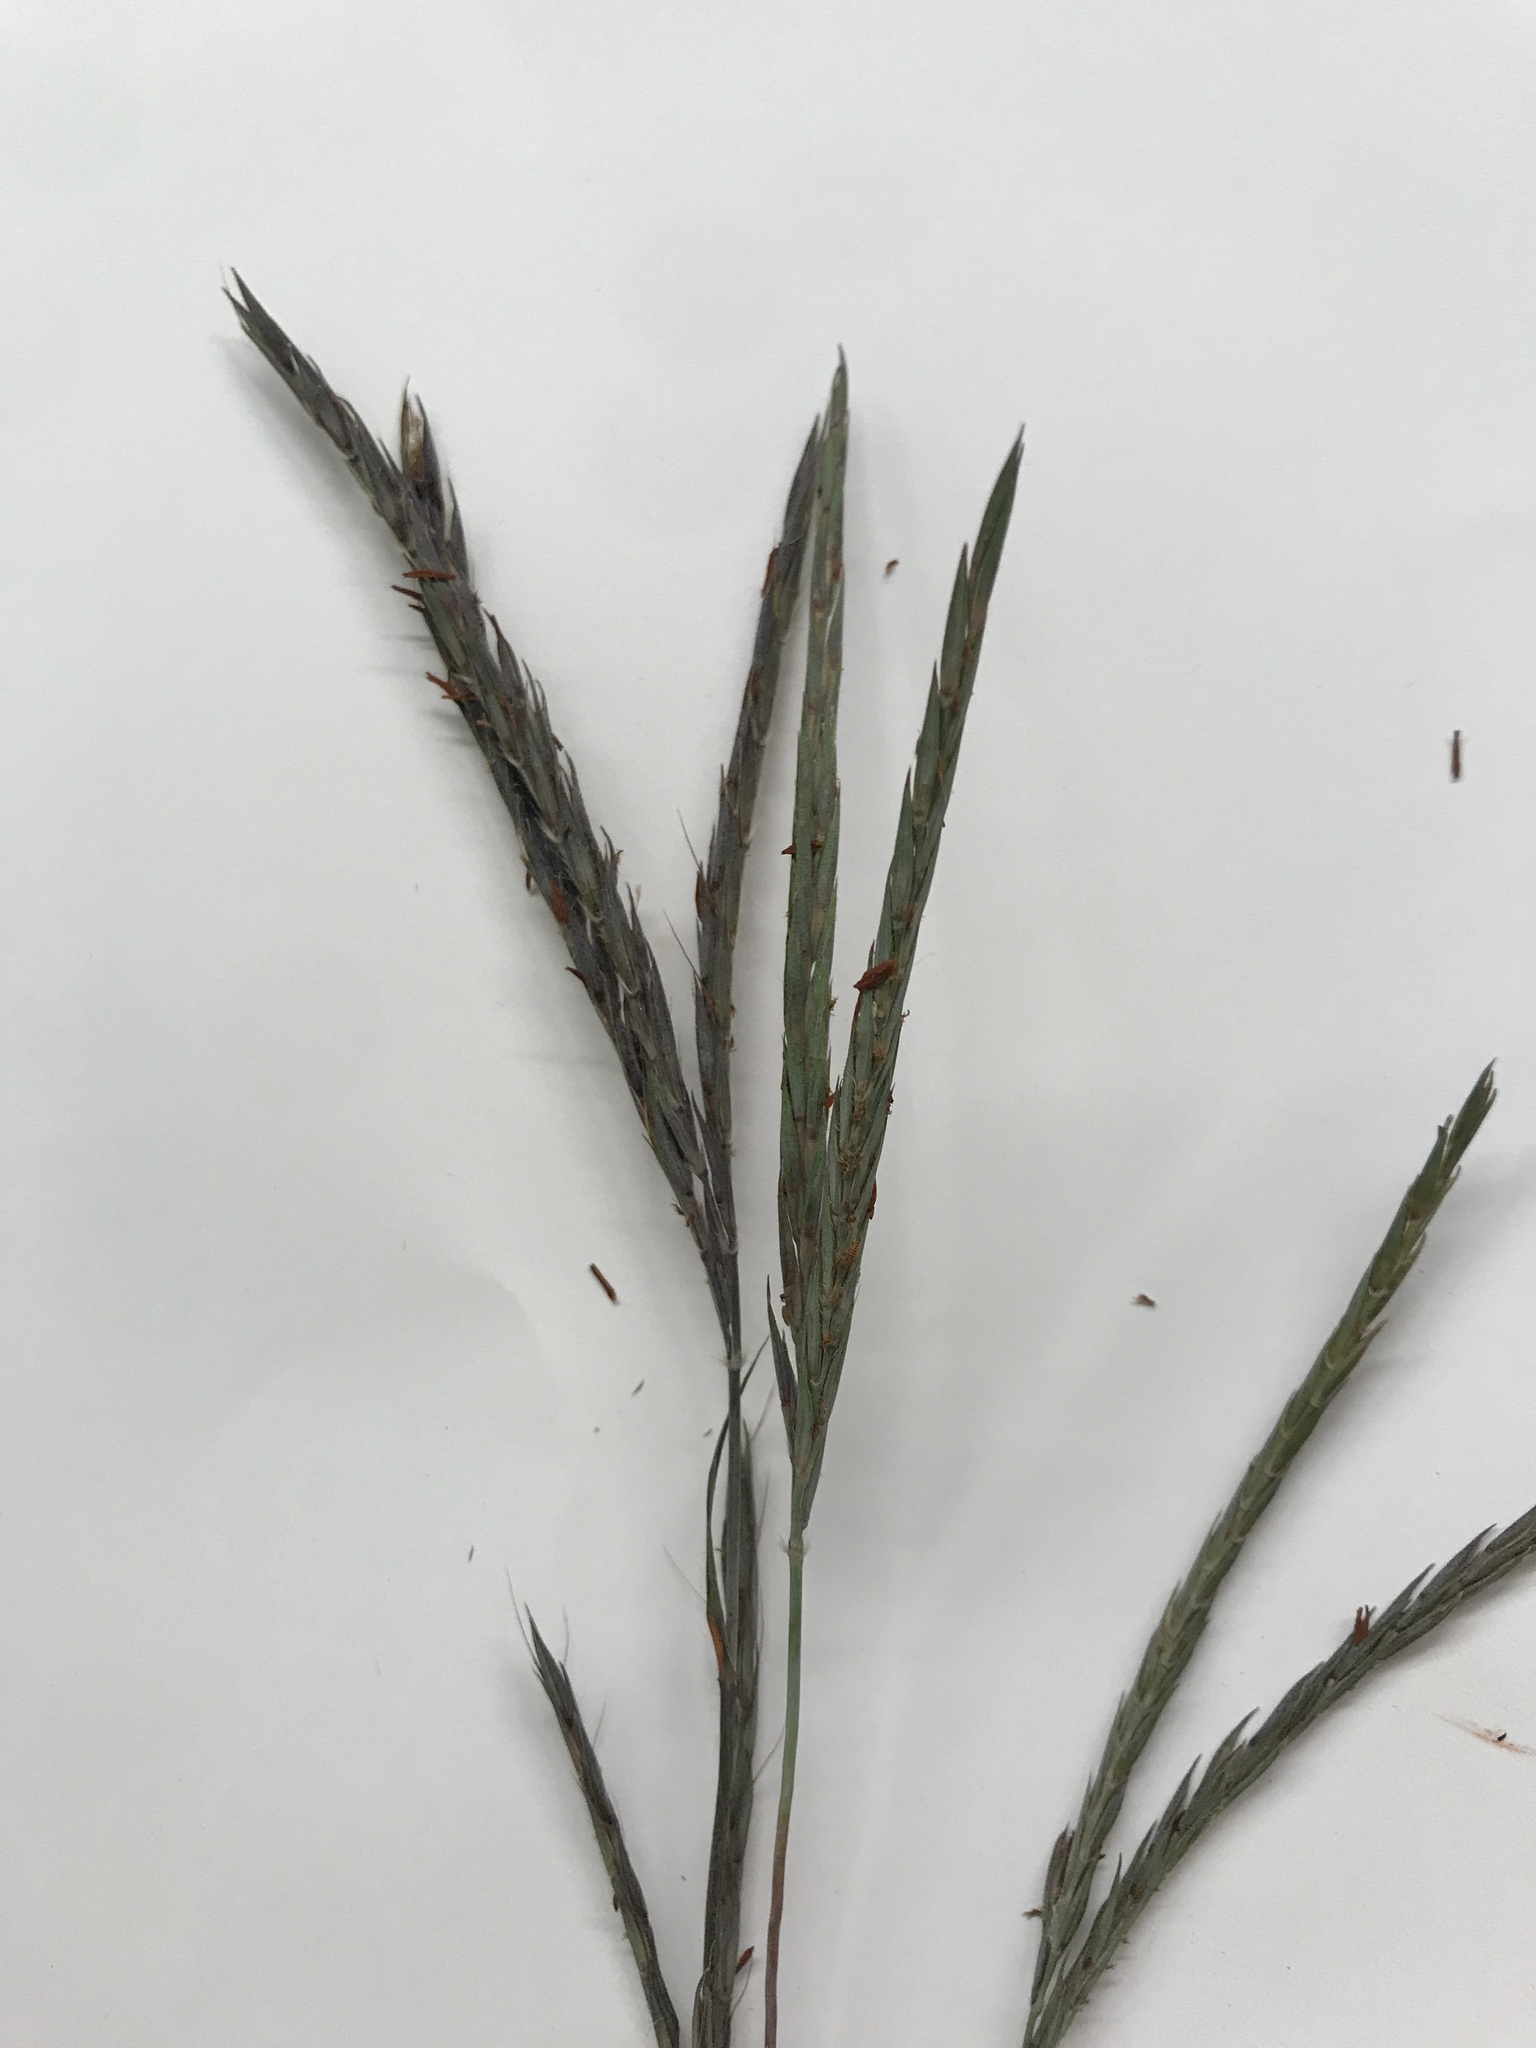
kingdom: Plantae
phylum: Tracheophyta
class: Liliopsida
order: Poales
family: Poaceae
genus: Andropogon
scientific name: Andropogon gerardi
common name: Big bluestem
